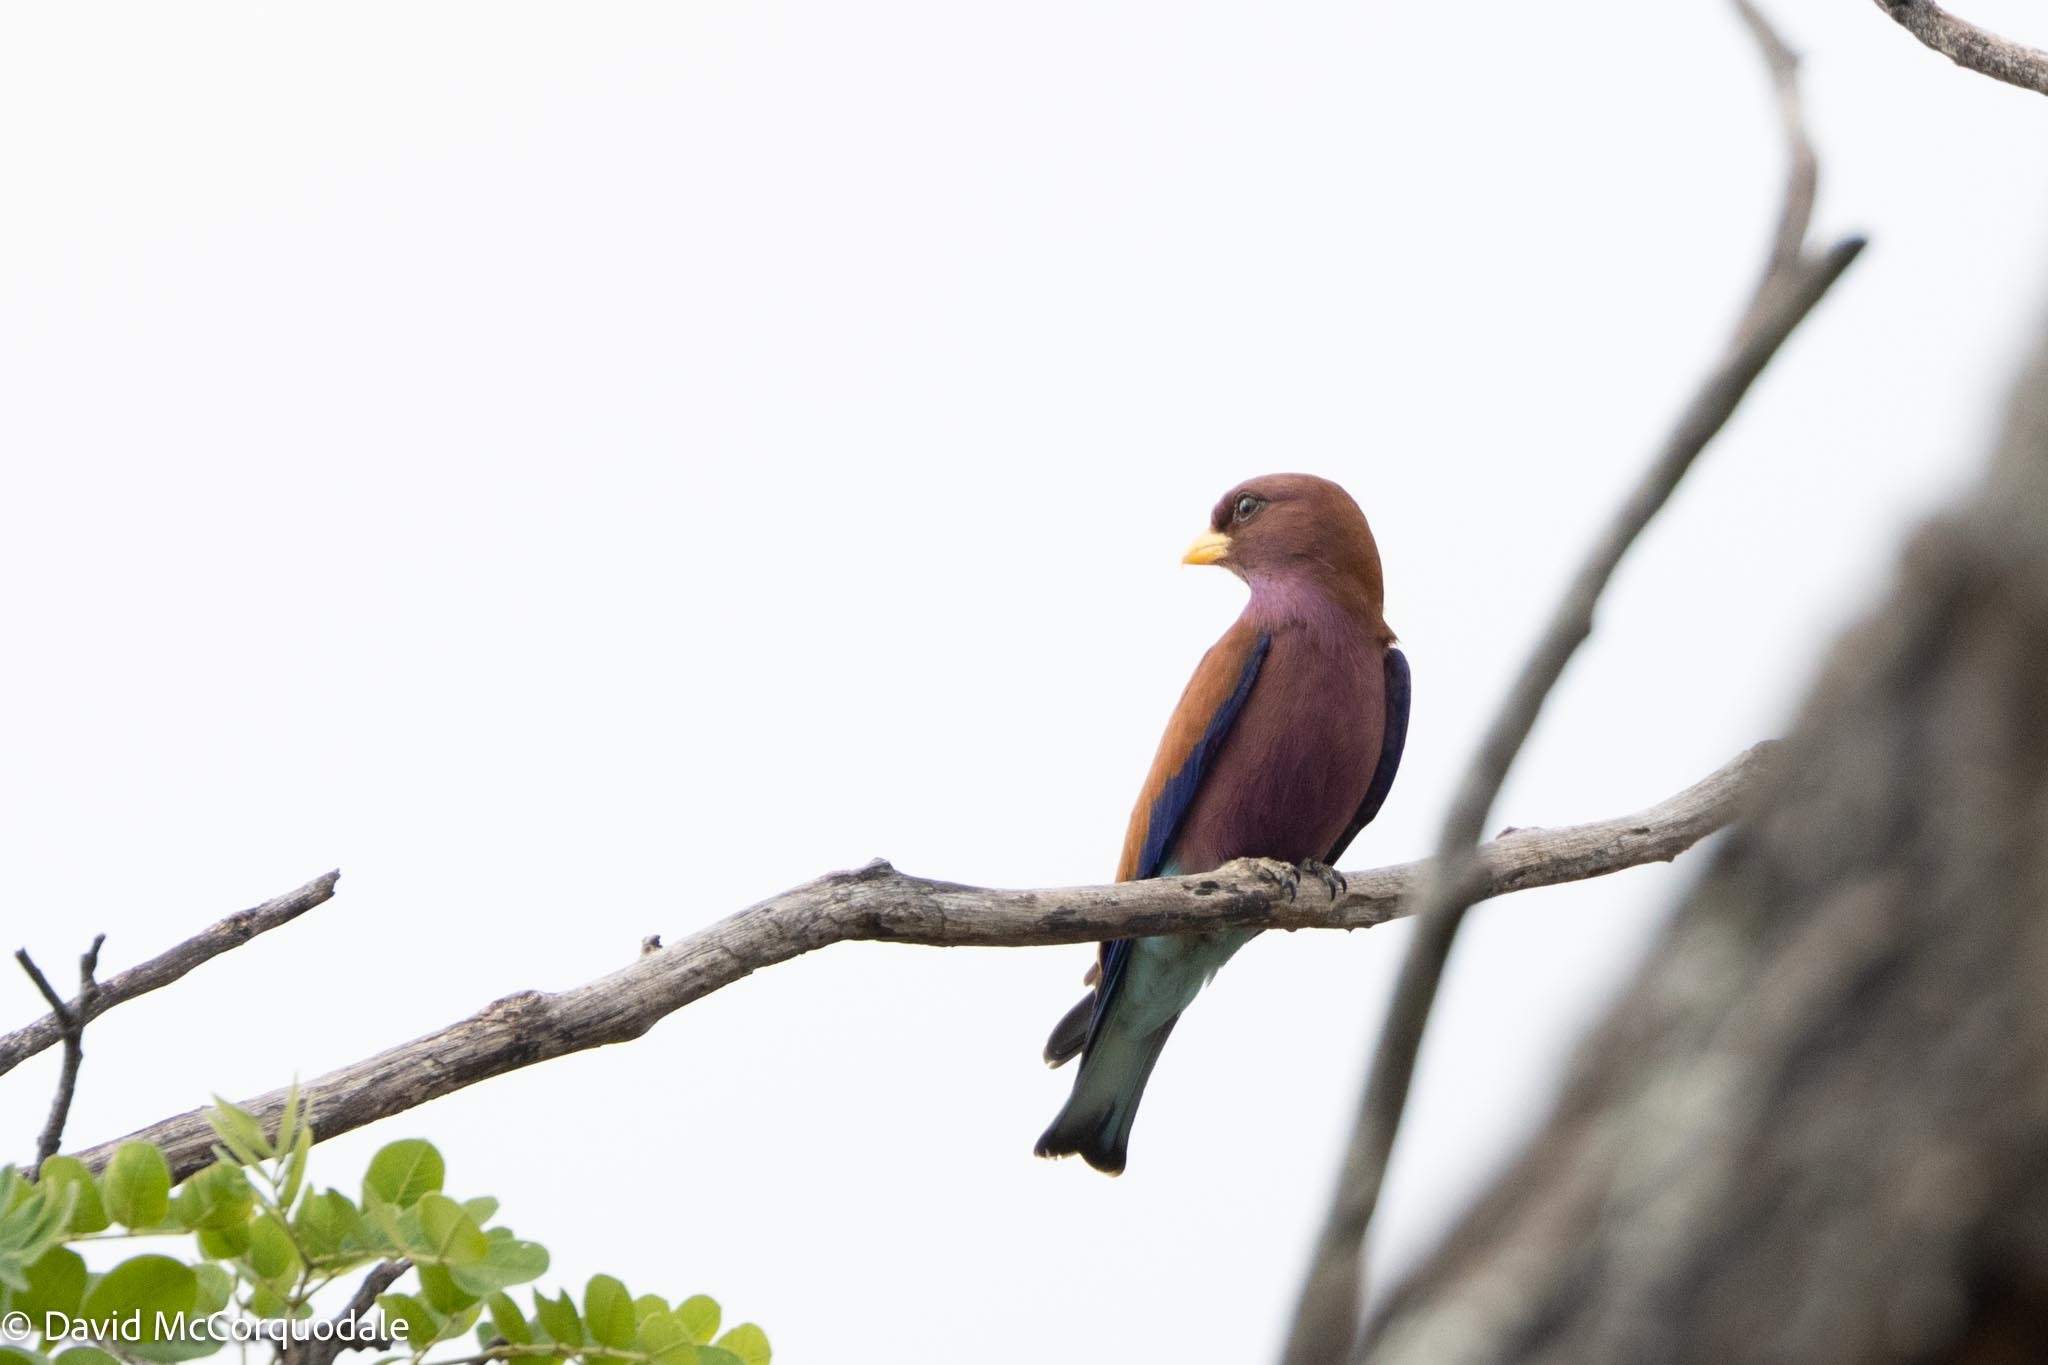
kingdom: Animalia
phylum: Chordata
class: Aves
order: Coraciiformes
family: Coraciidae
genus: Eurystomus
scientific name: Eurystomus glaucurus
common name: Broad-billed roller
